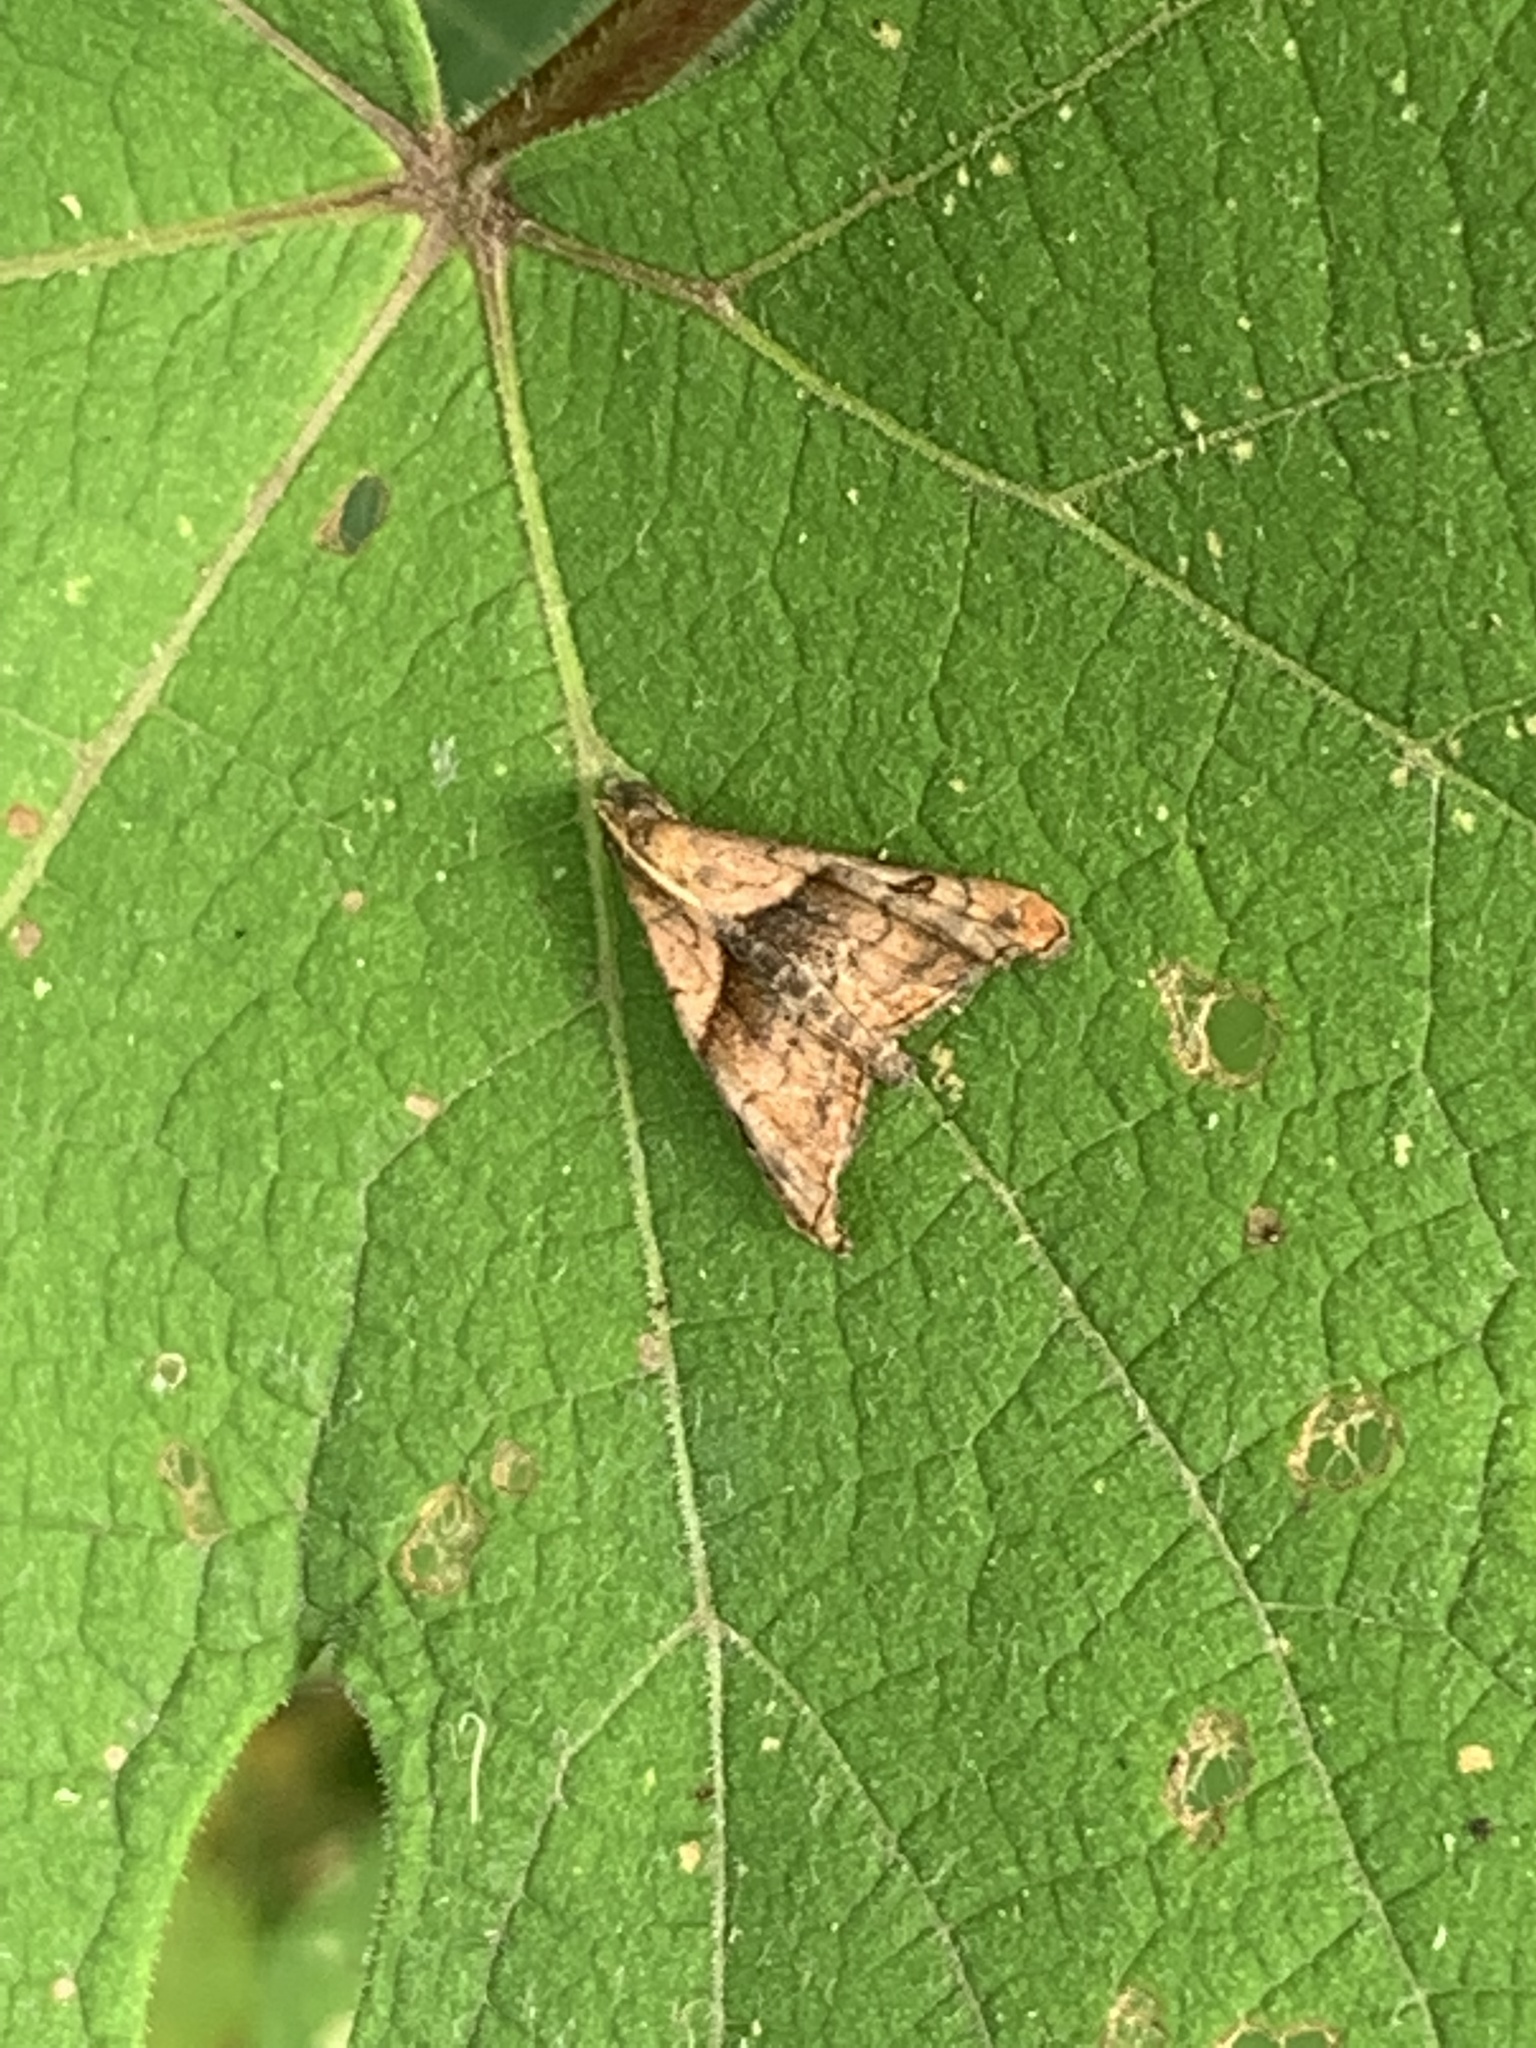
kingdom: Animalia
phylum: Arthropoda
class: Insecta
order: Lepidoptera
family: Erebidae
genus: Palthis
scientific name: Palthis angulalis
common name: Dark-spotted palthis moth
